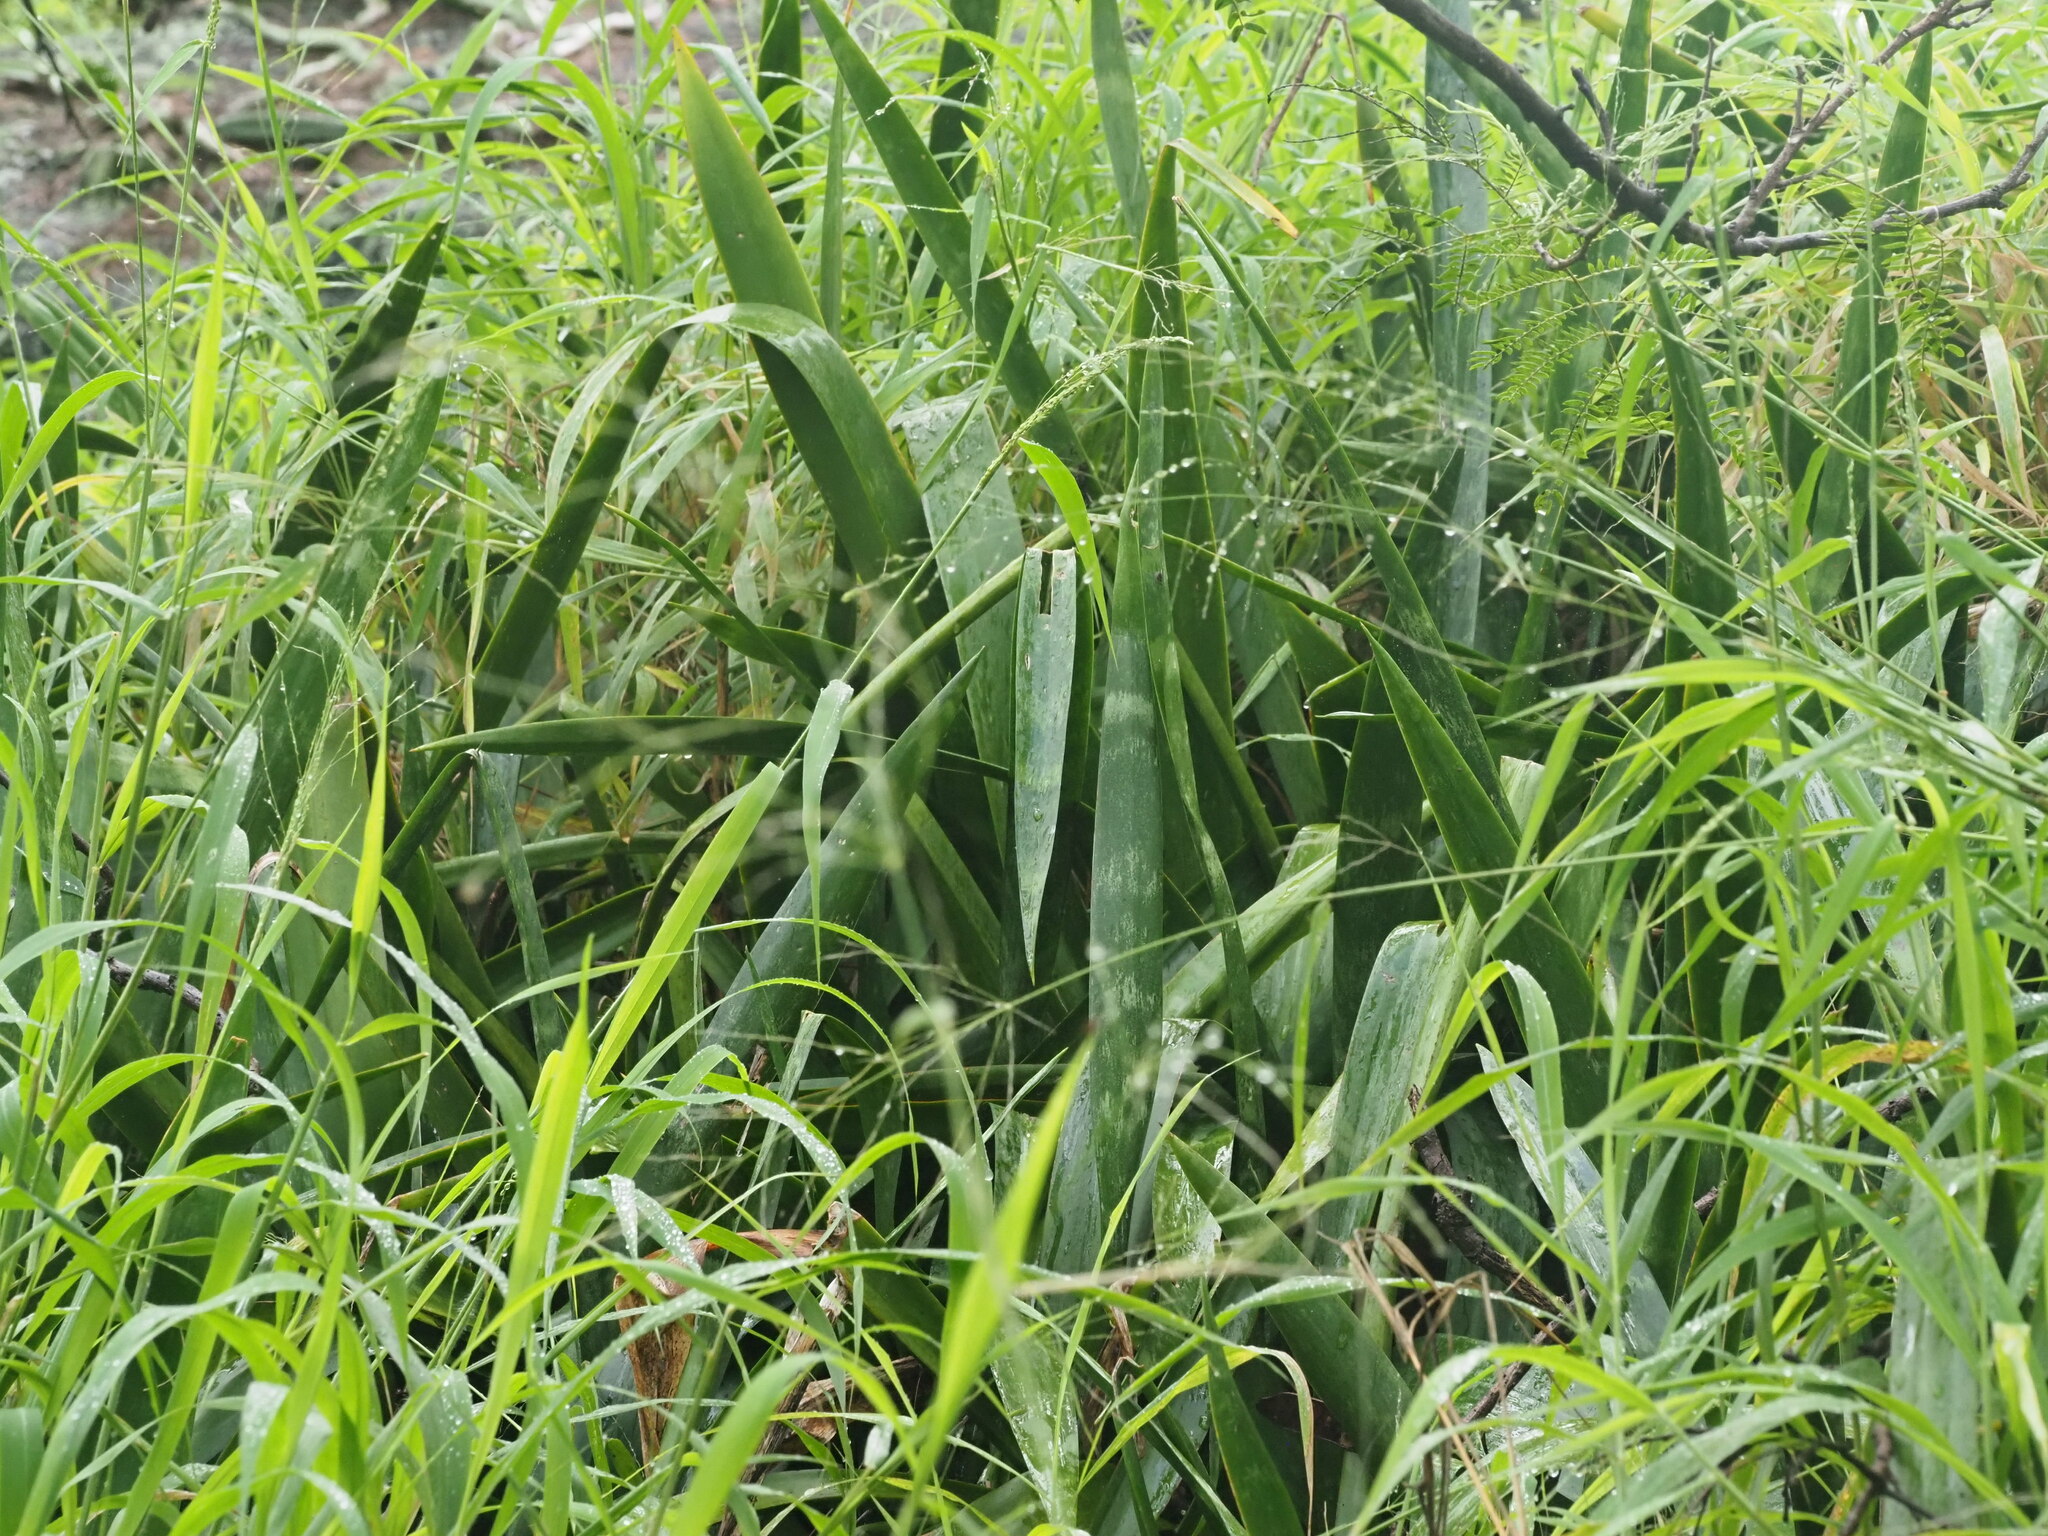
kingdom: Plantae
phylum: Tracheophyta
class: Liliopsida
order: Asparagales
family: Asparagaceae
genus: Dracaena
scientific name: Dracaena trifasciata
